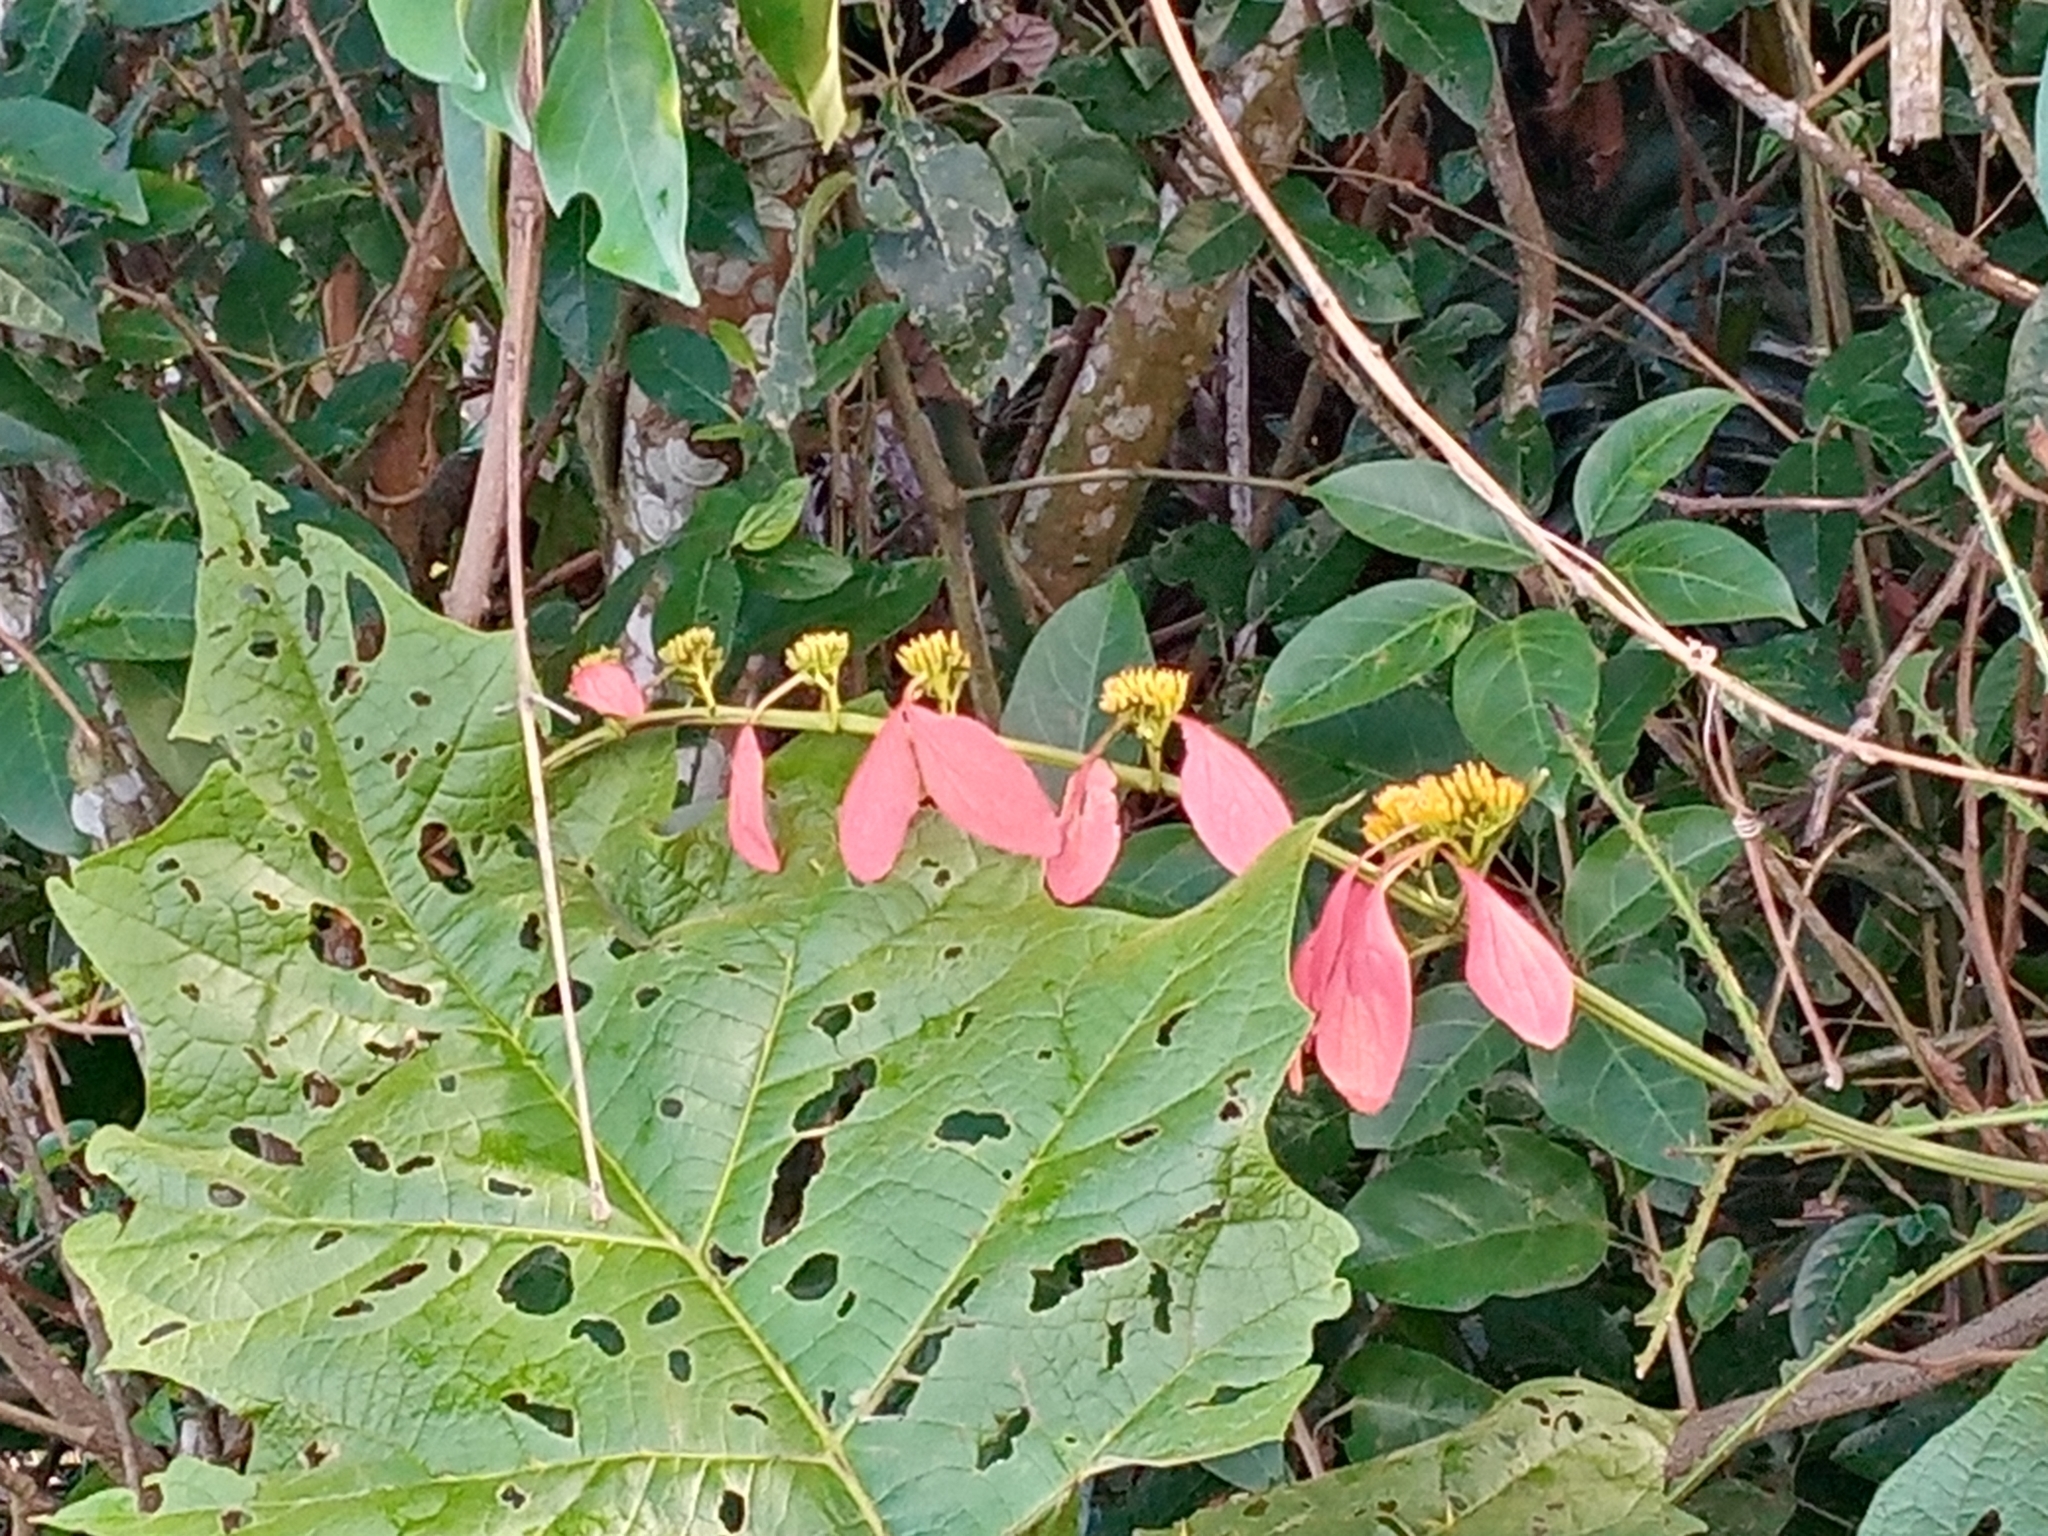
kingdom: Plantae
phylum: Tracheophyta
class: Magnoliopsida
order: Gentianales
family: Rubiaceae
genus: Warszewiczia
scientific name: Warszewiczia coccinea
